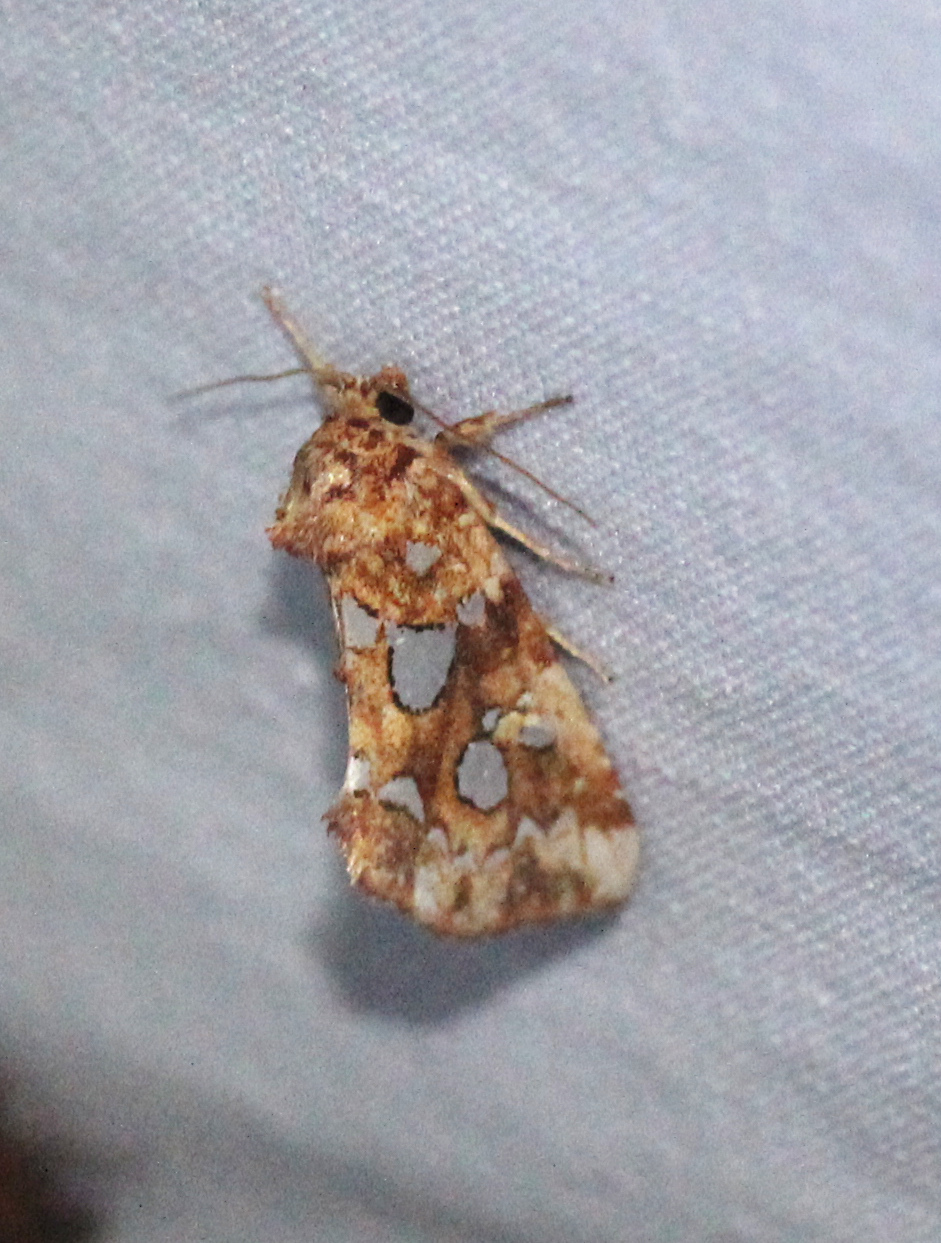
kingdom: Animalia
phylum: Arthropoda
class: Insecta
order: Lepidoptera
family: Noctuidae
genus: Callopistria
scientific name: Callopistria cordata
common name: Silver-spotted fern moth
